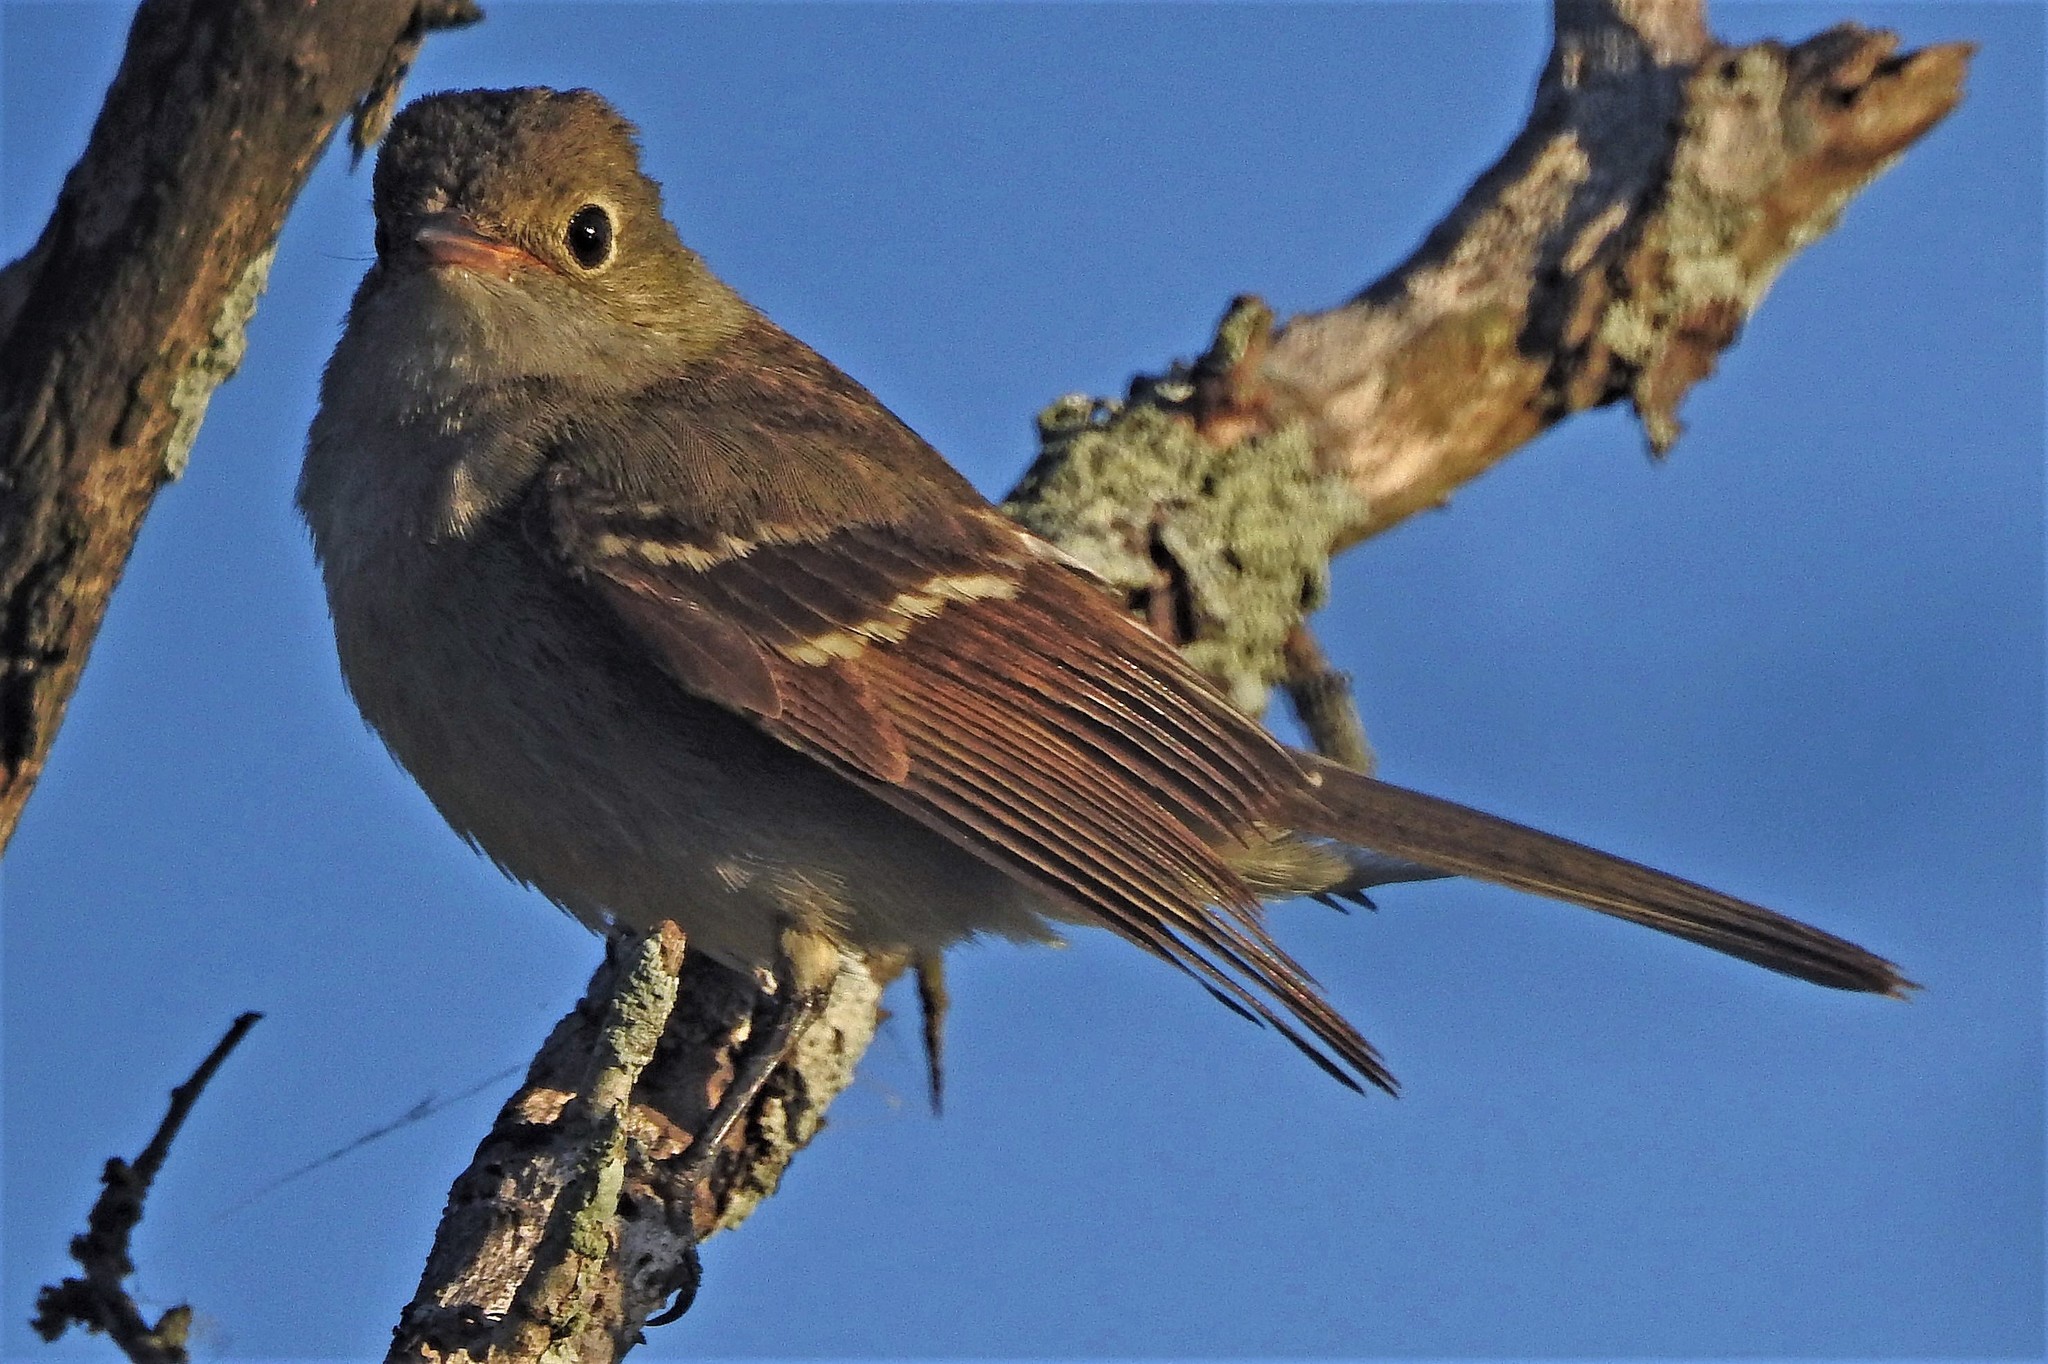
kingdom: Animalia
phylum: Chordata
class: Aves
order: Passeriformes
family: Tyrannidae
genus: Camptostoma
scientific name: Camptostoma obsoletum
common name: Southern beardless-tyrannulet
